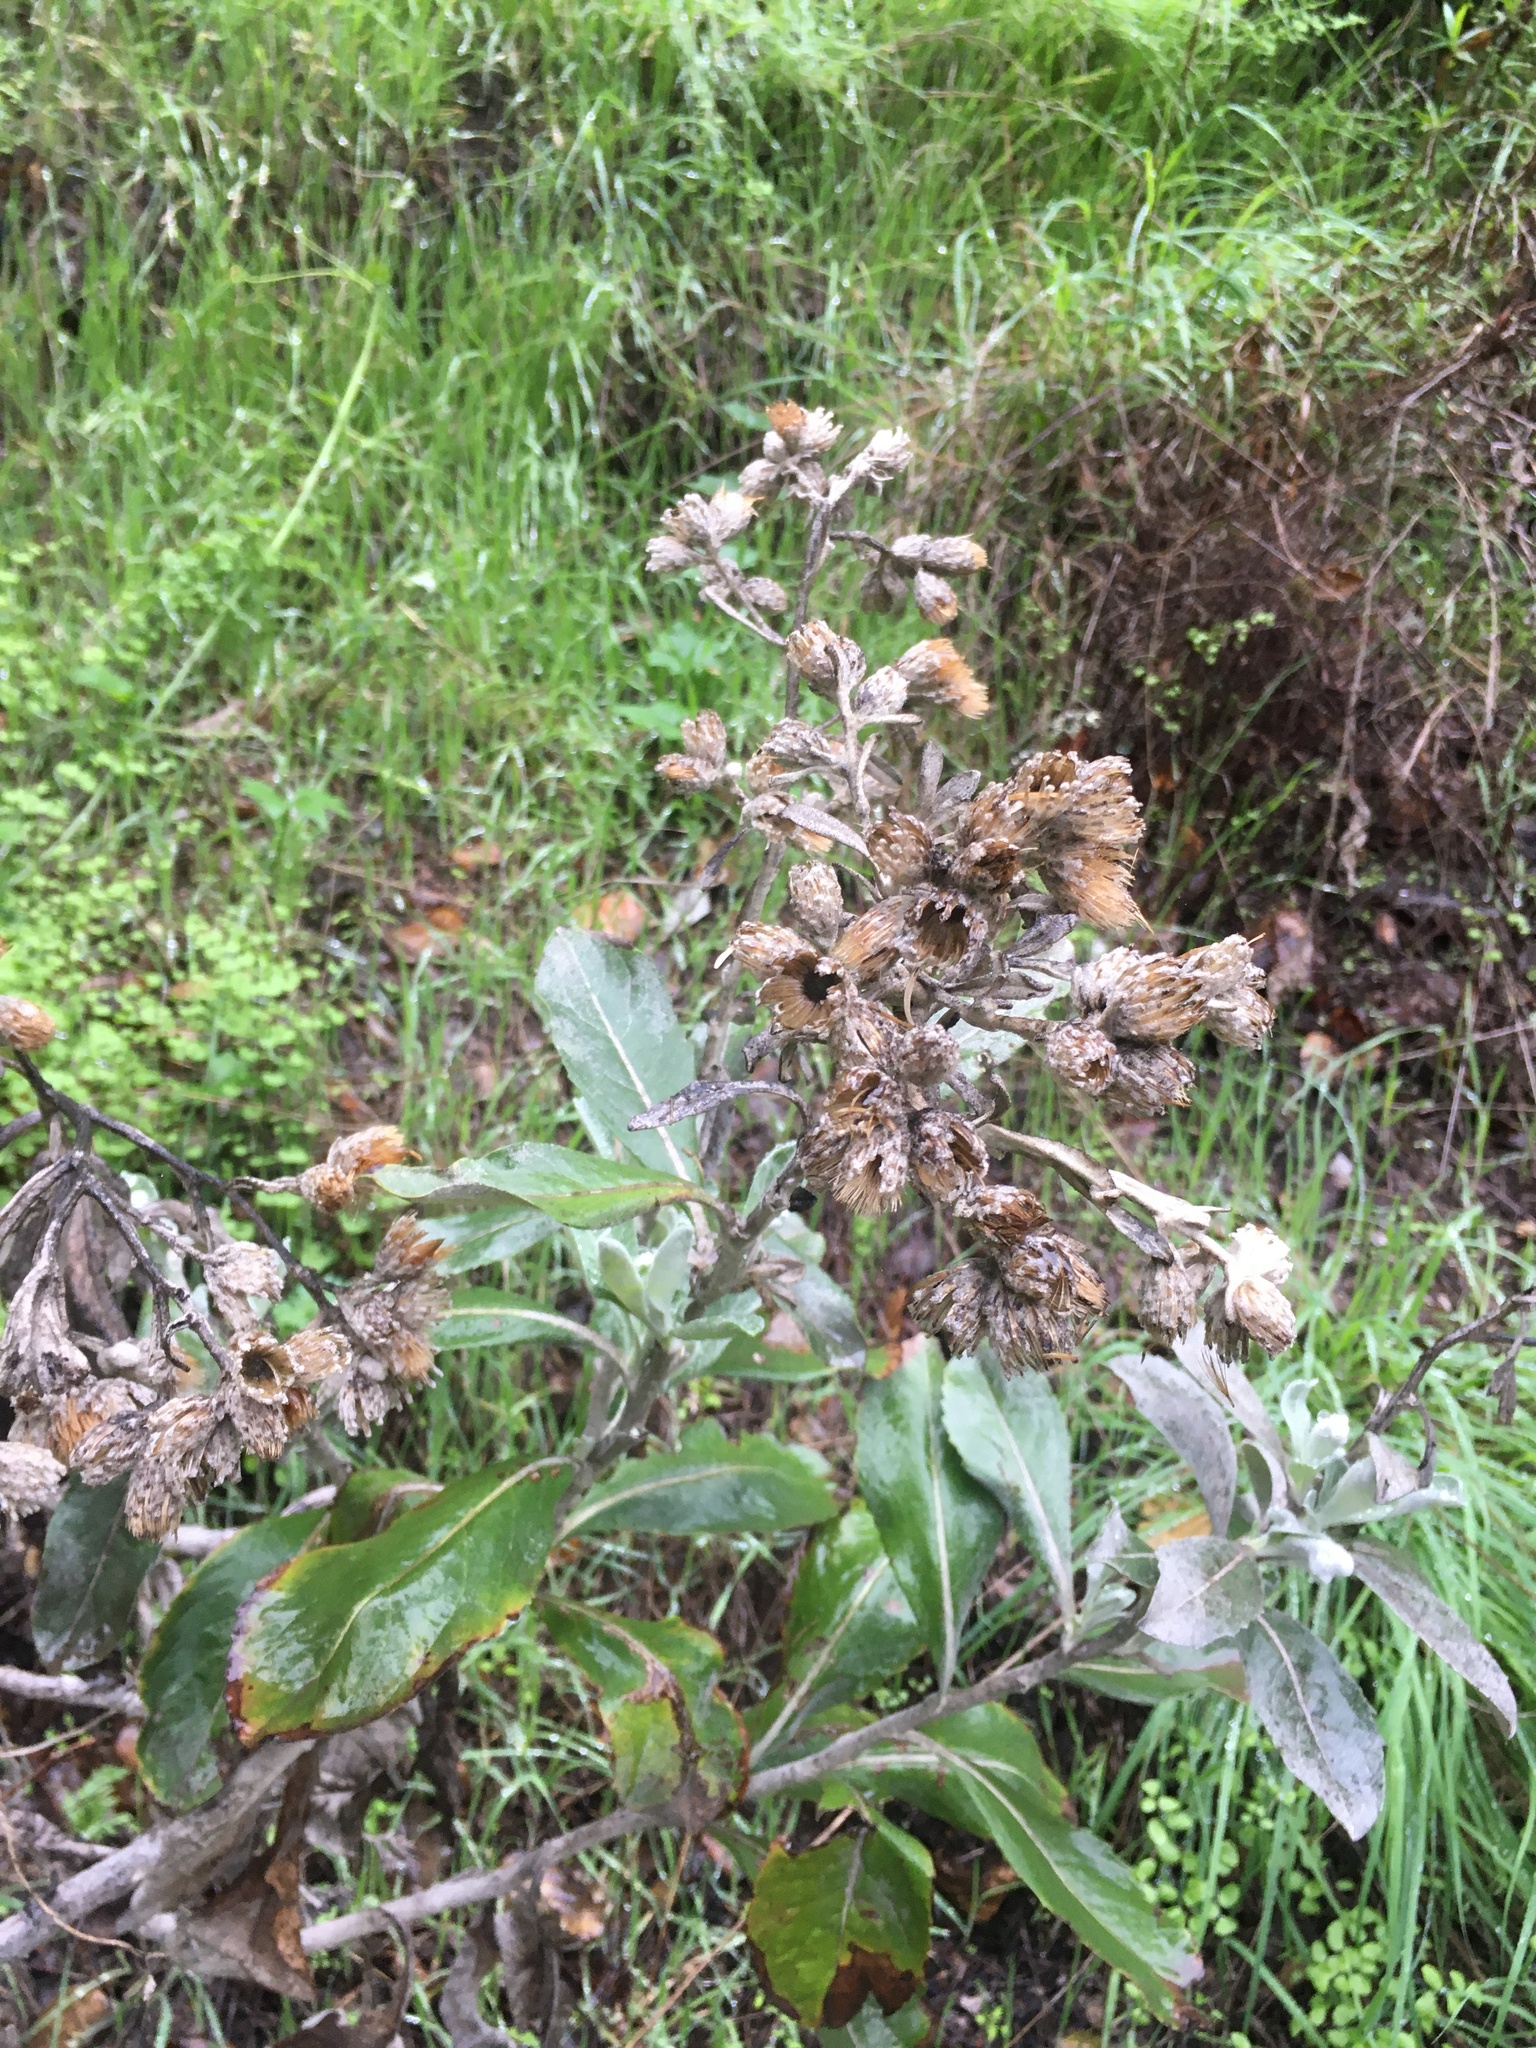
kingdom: Plantae
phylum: Tracheophyta
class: Magnoliopsida
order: Asterales
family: Asteraceae
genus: Hazardia
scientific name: Hazardia detonsa
